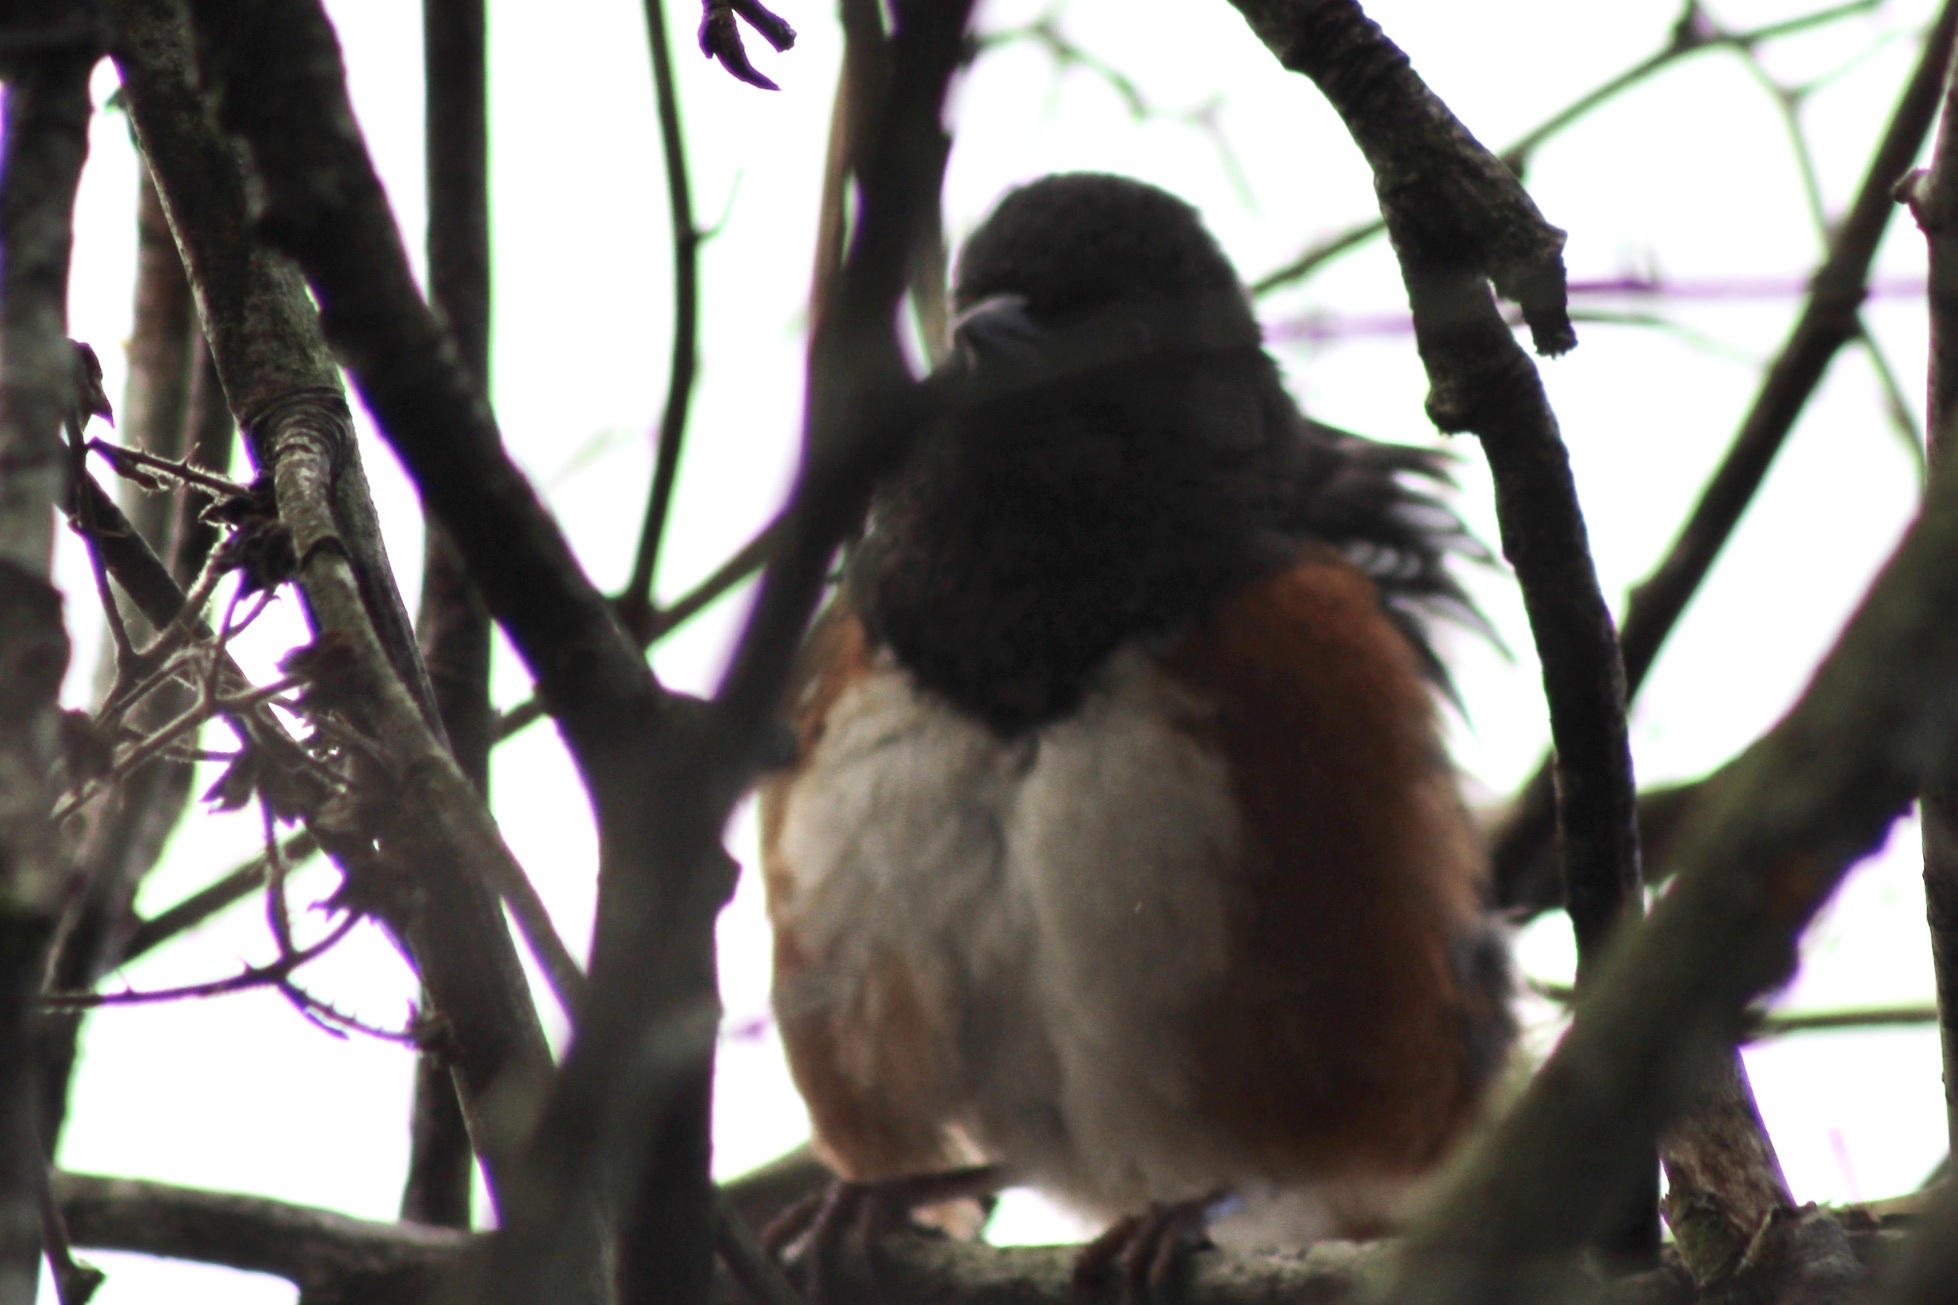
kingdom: Animalia
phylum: Chordata
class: Aves
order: Passeriformes
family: Passerellidae
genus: Pipilo
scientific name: Pipilo maculatus
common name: Spotted towhee
